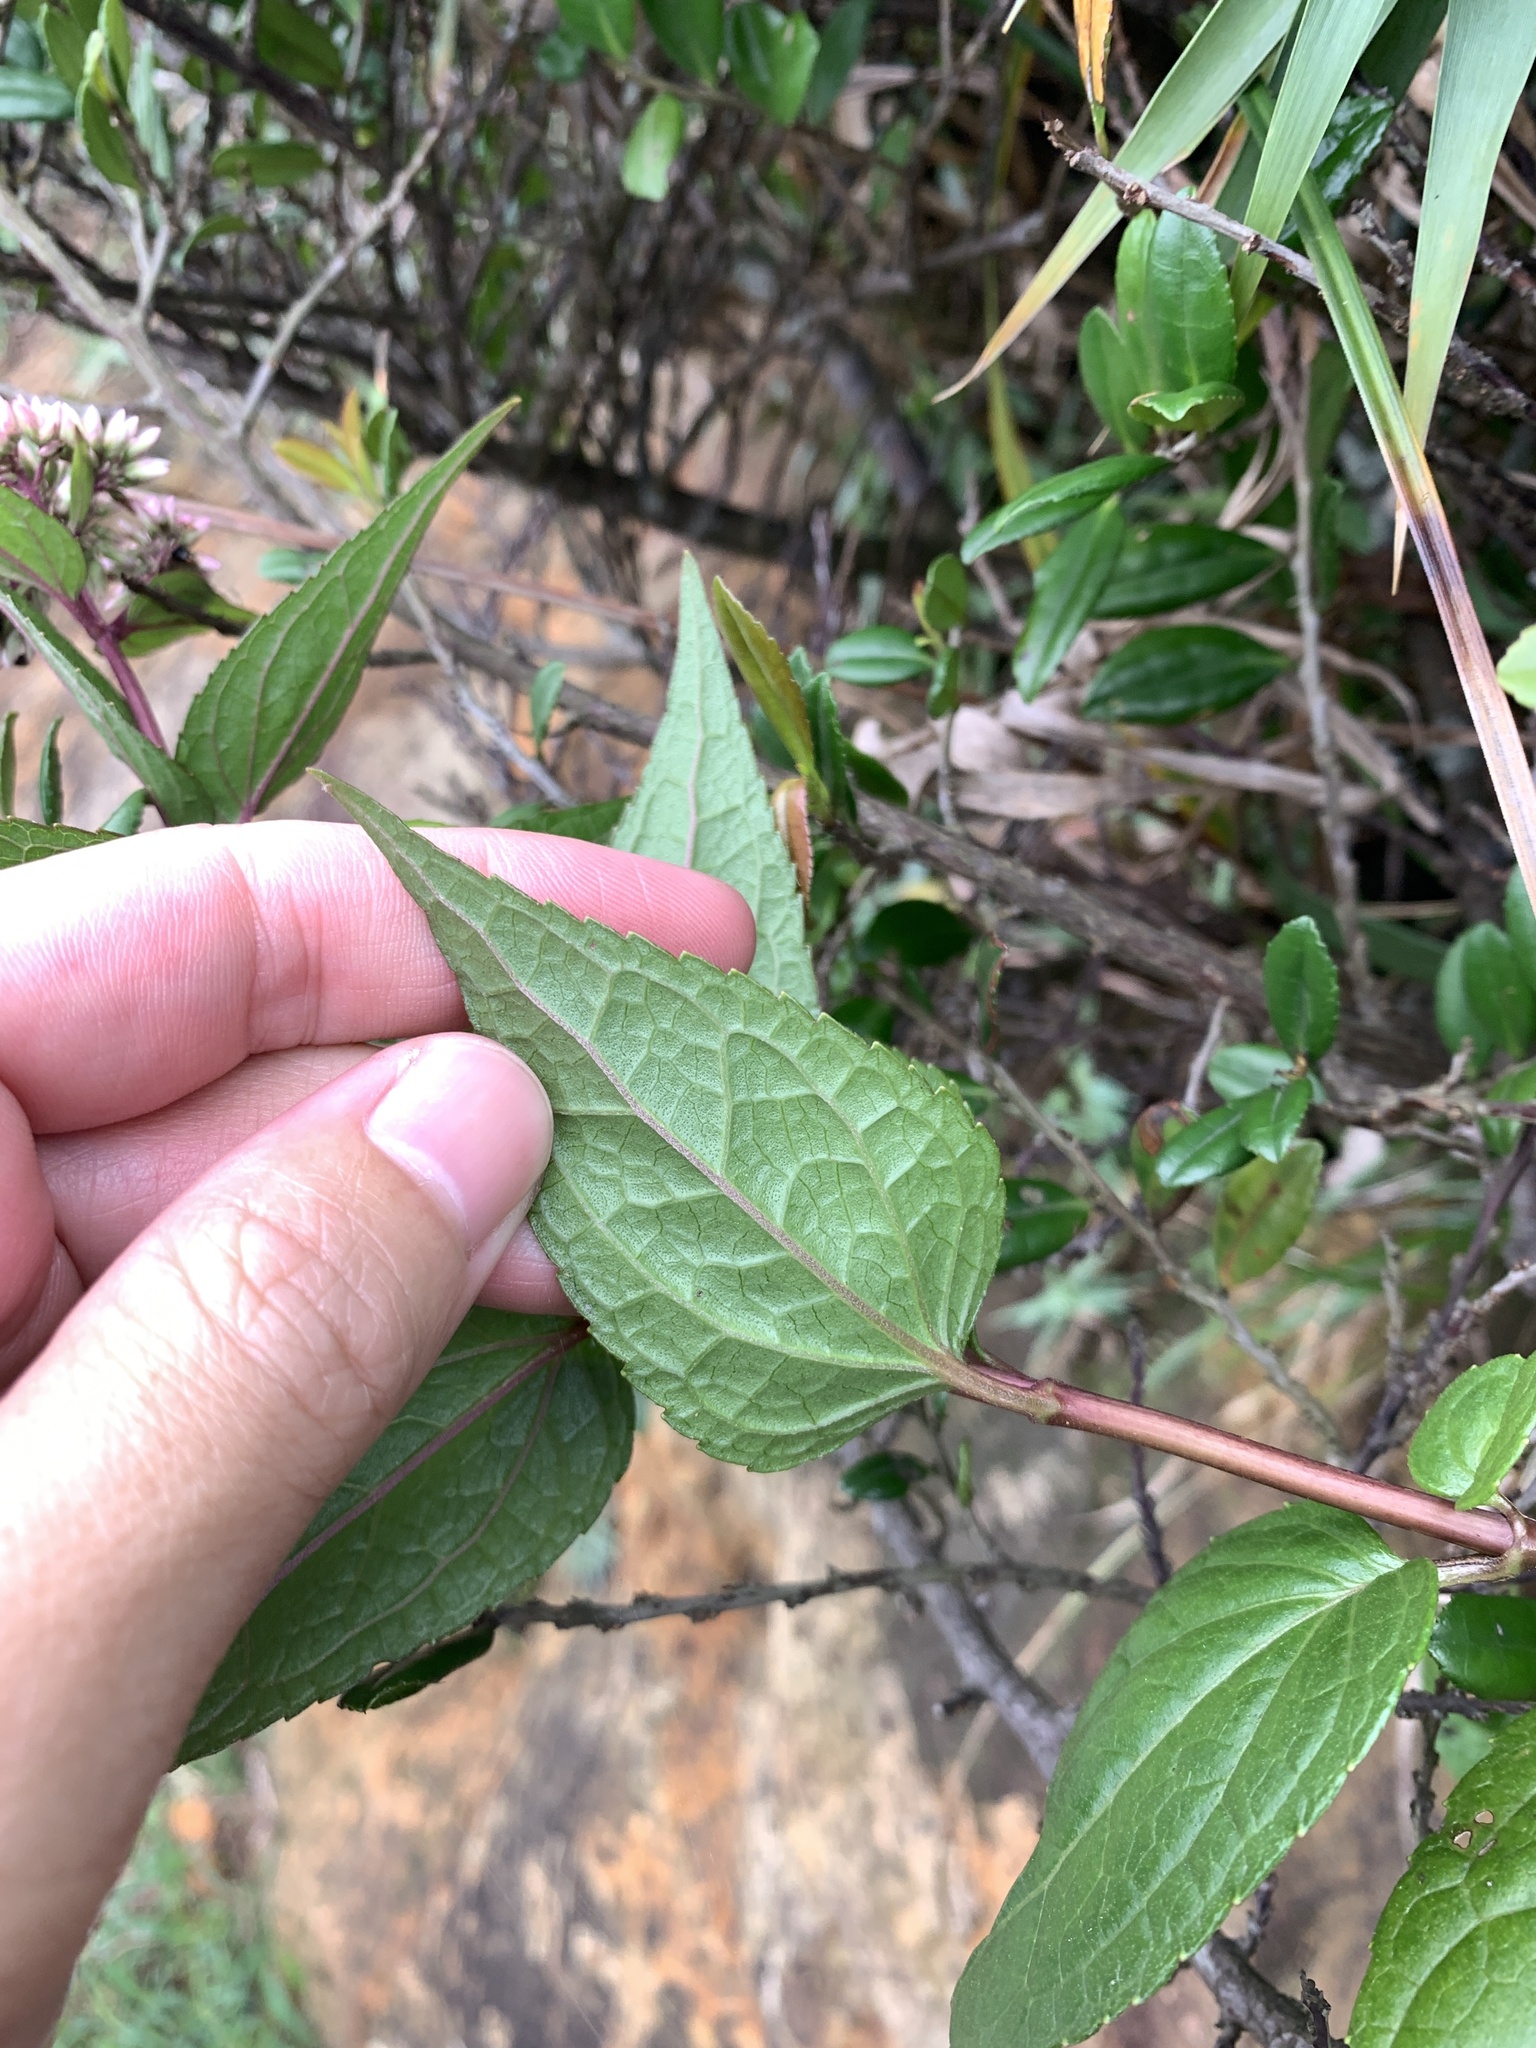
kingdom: Plantae
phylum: Tracheophyta
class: Magnoliopsida
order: Asterales
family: Asteraceae
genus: Eupatorium
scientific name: Eupatorium luchuense
